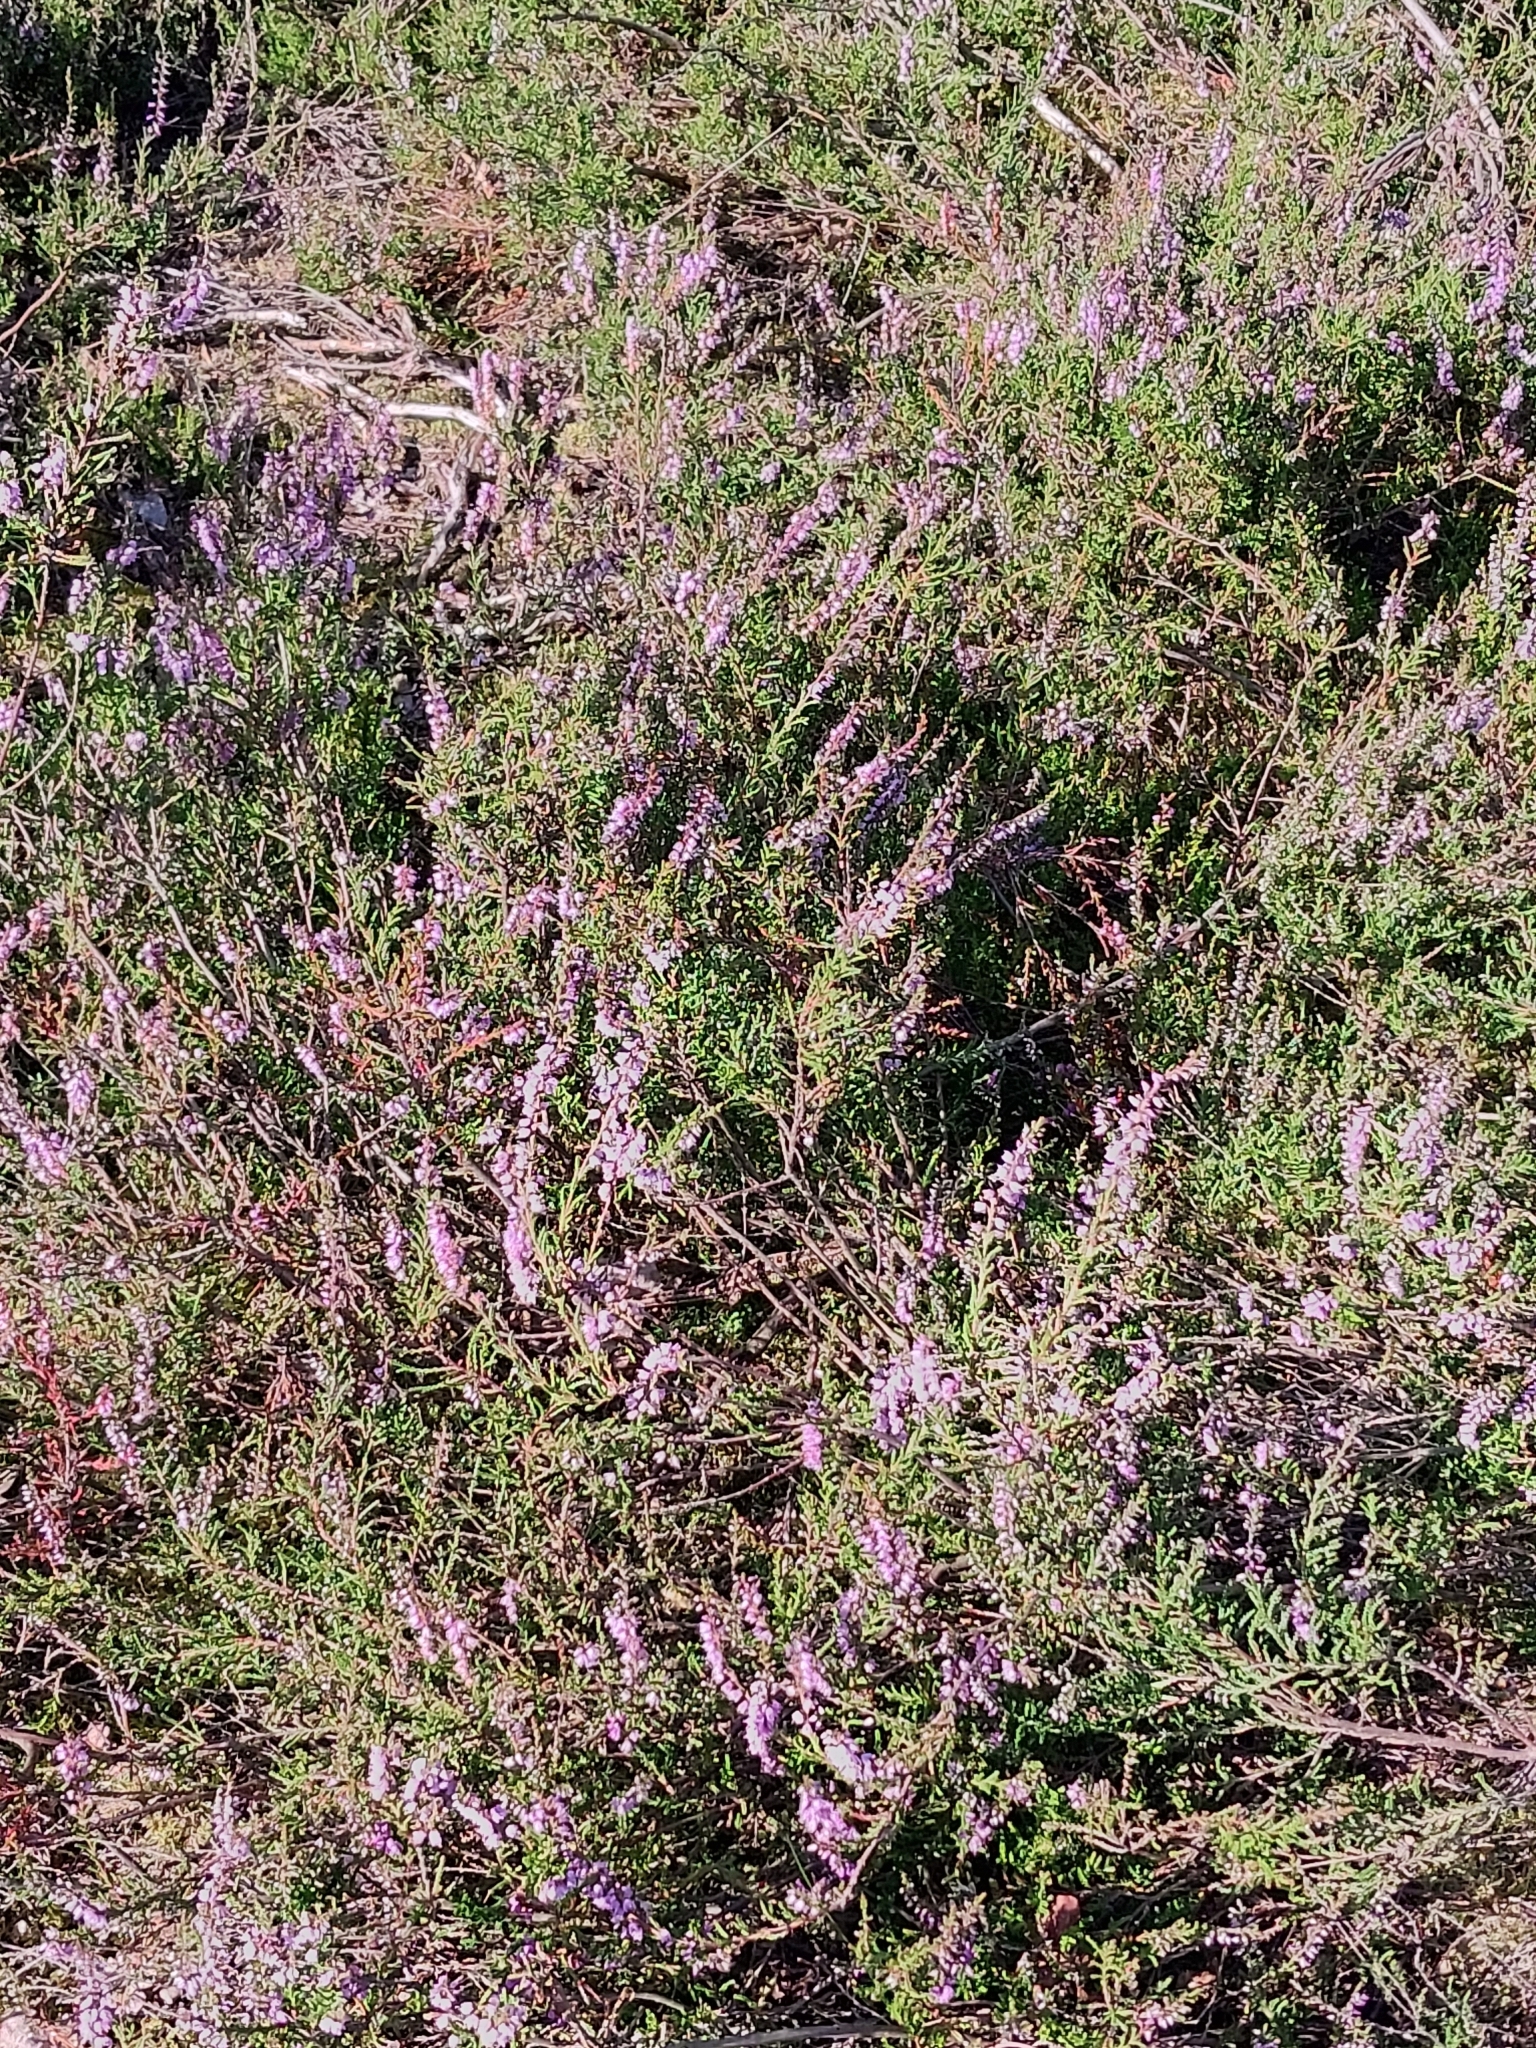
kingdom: Animalia
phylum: Chordata
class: Squamata
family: Lacertidae
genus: Lacerta
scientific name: Lacerta agilis
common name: Sand lizard
